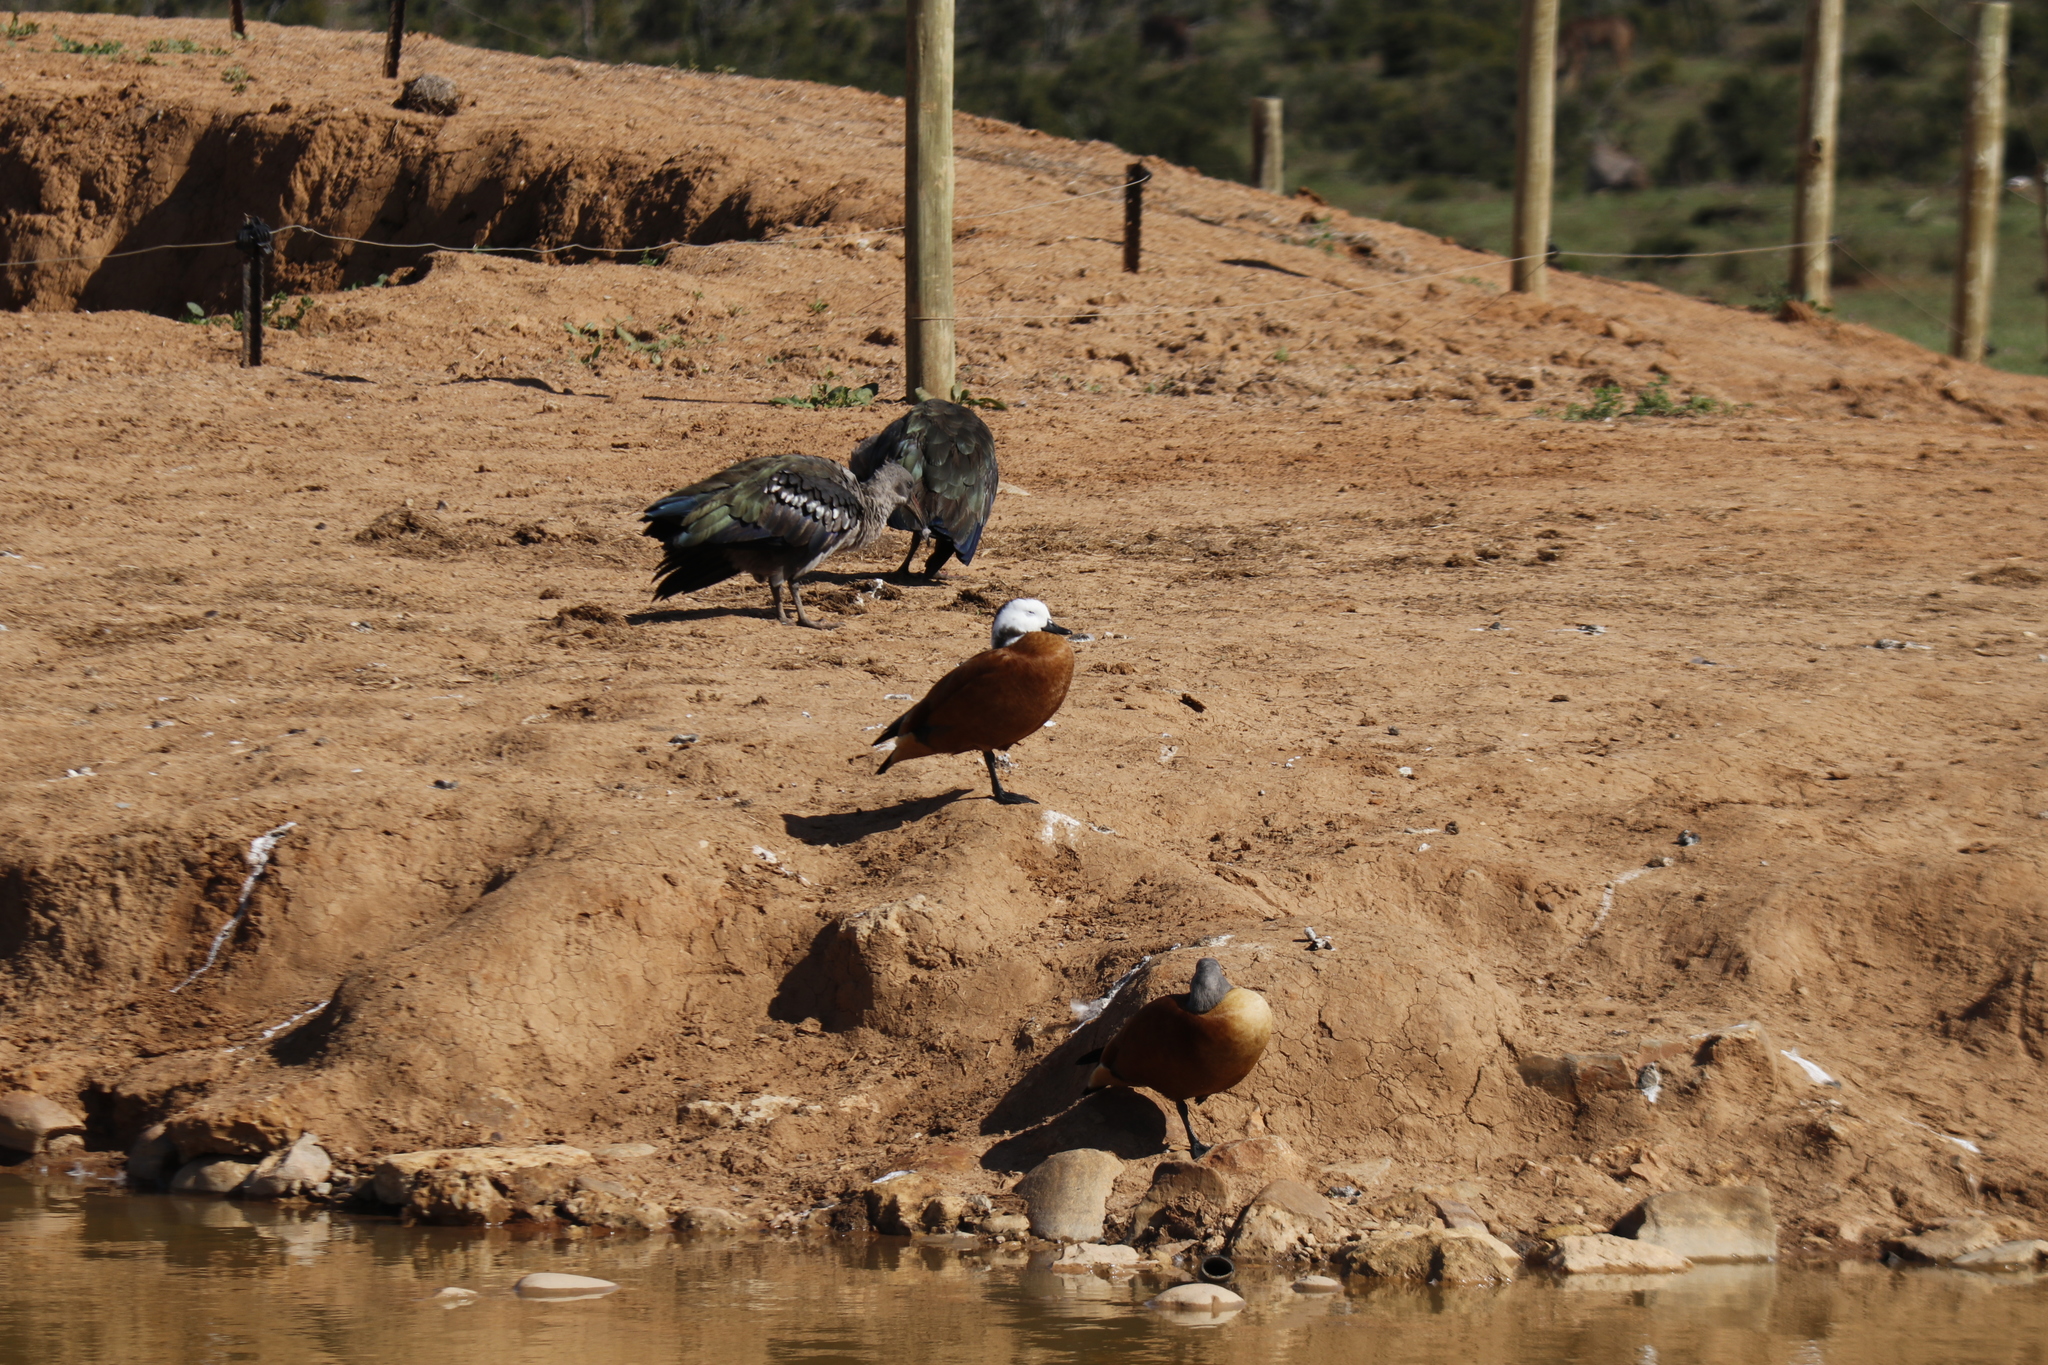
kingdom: Animalia
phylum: Chordata
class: Aves
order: Anseriformes
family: Anatidae
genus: Tadorna
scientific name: Tadorna cana
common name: South african shelduck
